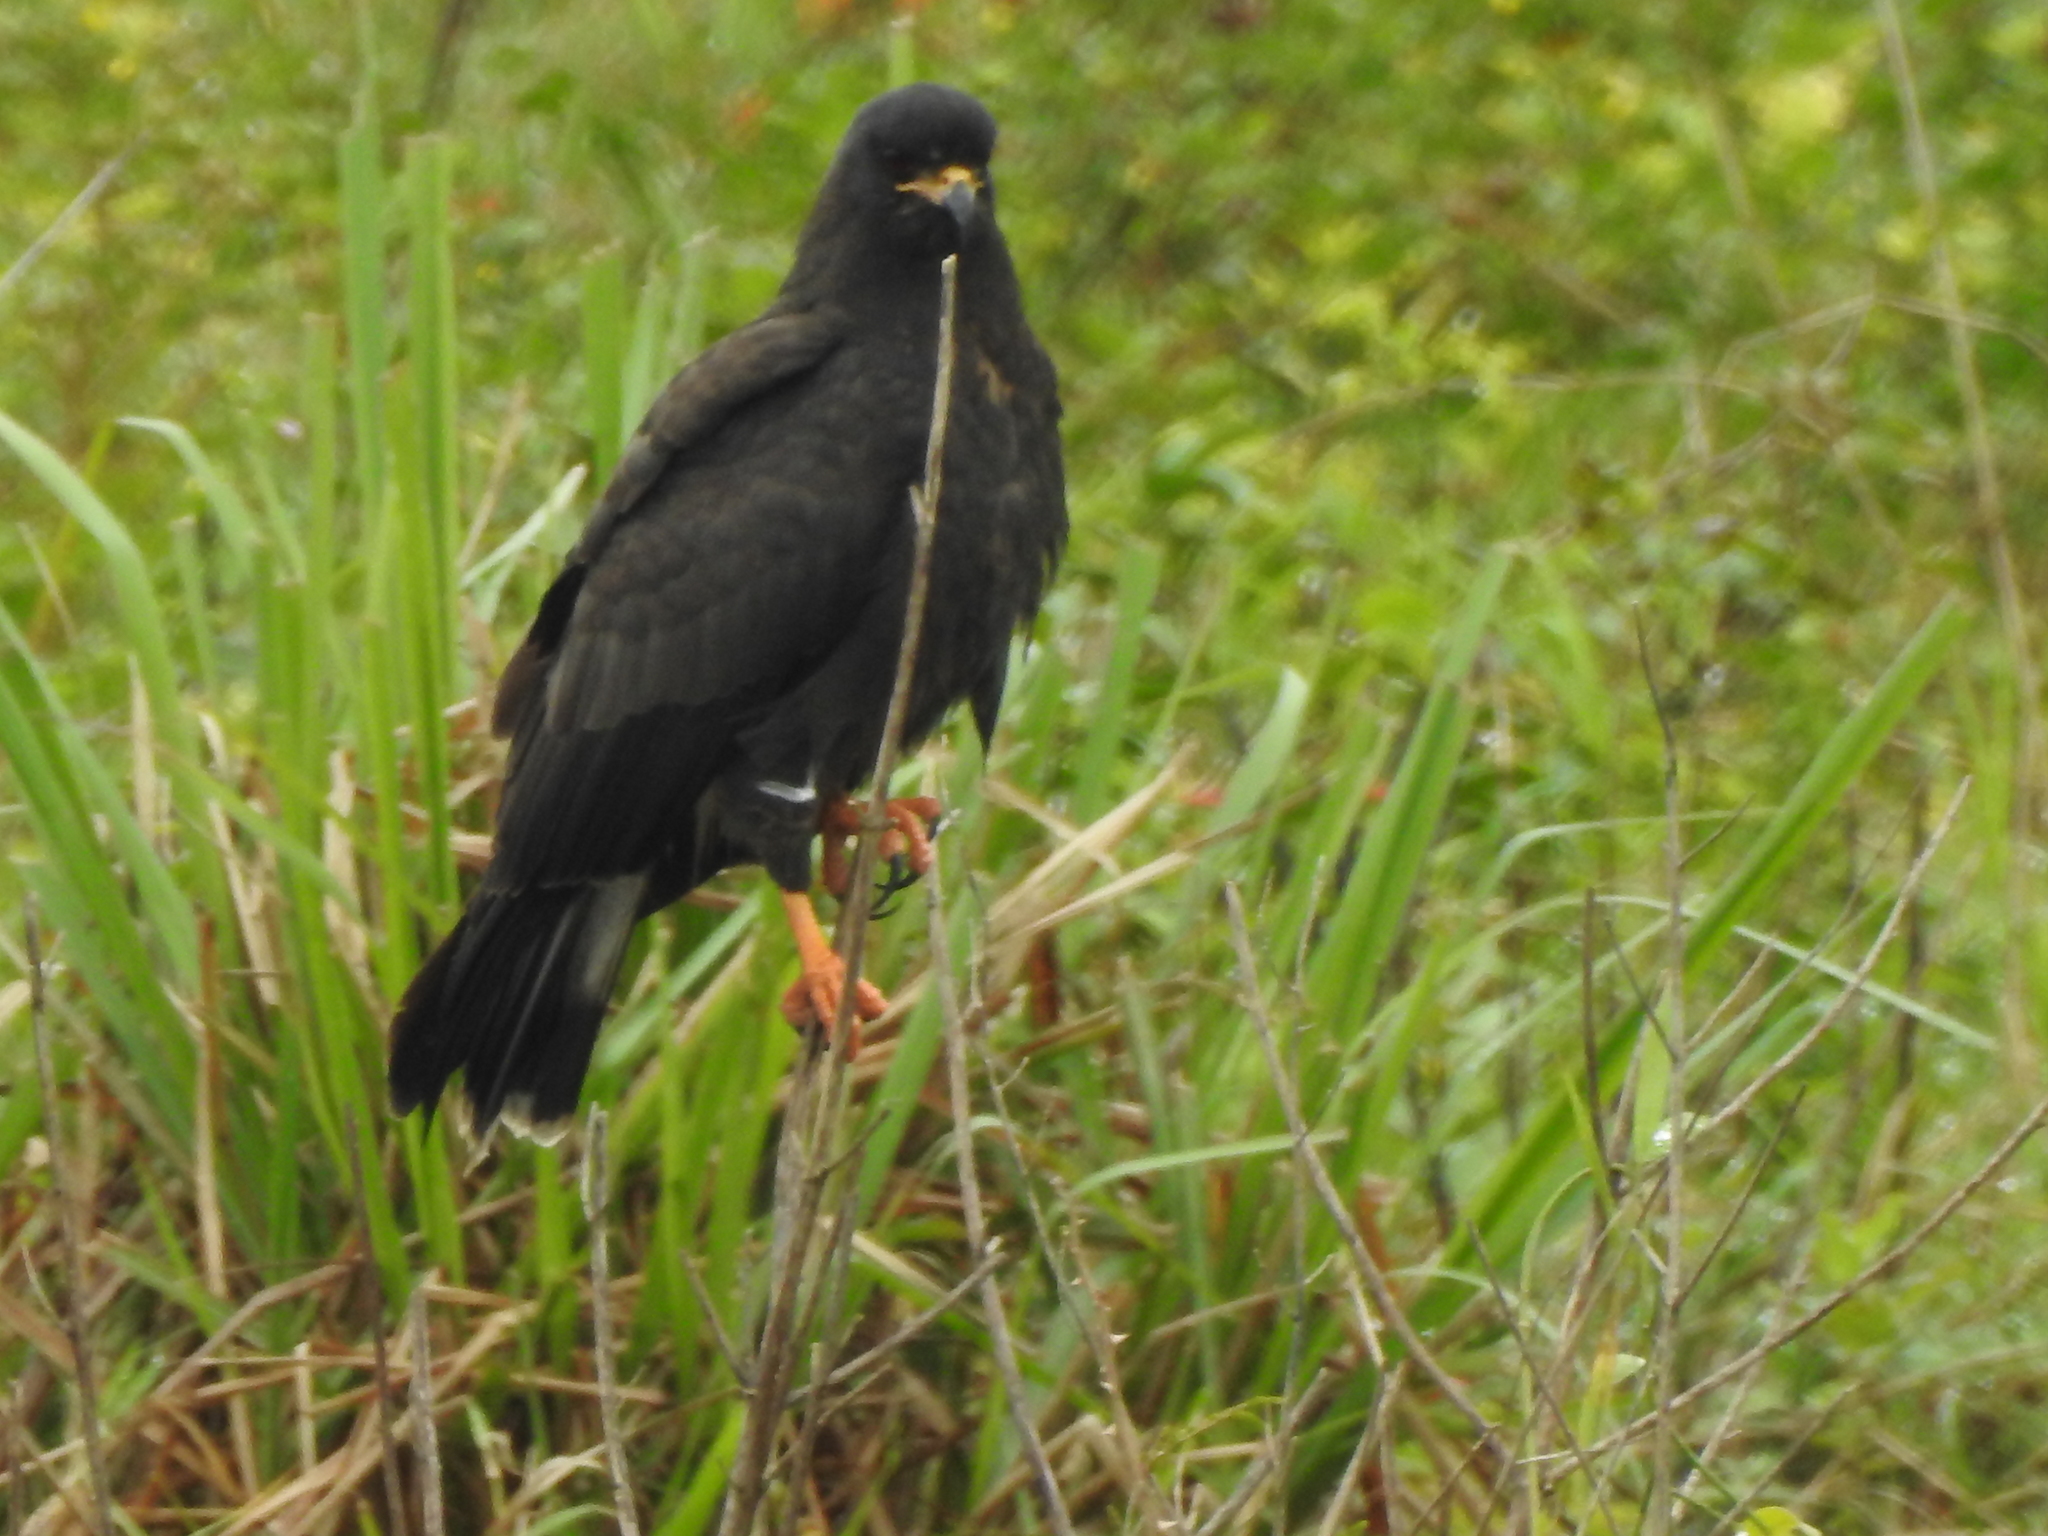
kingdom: Animalia
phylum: Chordata
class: Aves
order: Accipitriformes
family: Accipitridae
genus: Rostrhamus
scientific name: Rostrhamus sociabilis
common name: Snail kite
